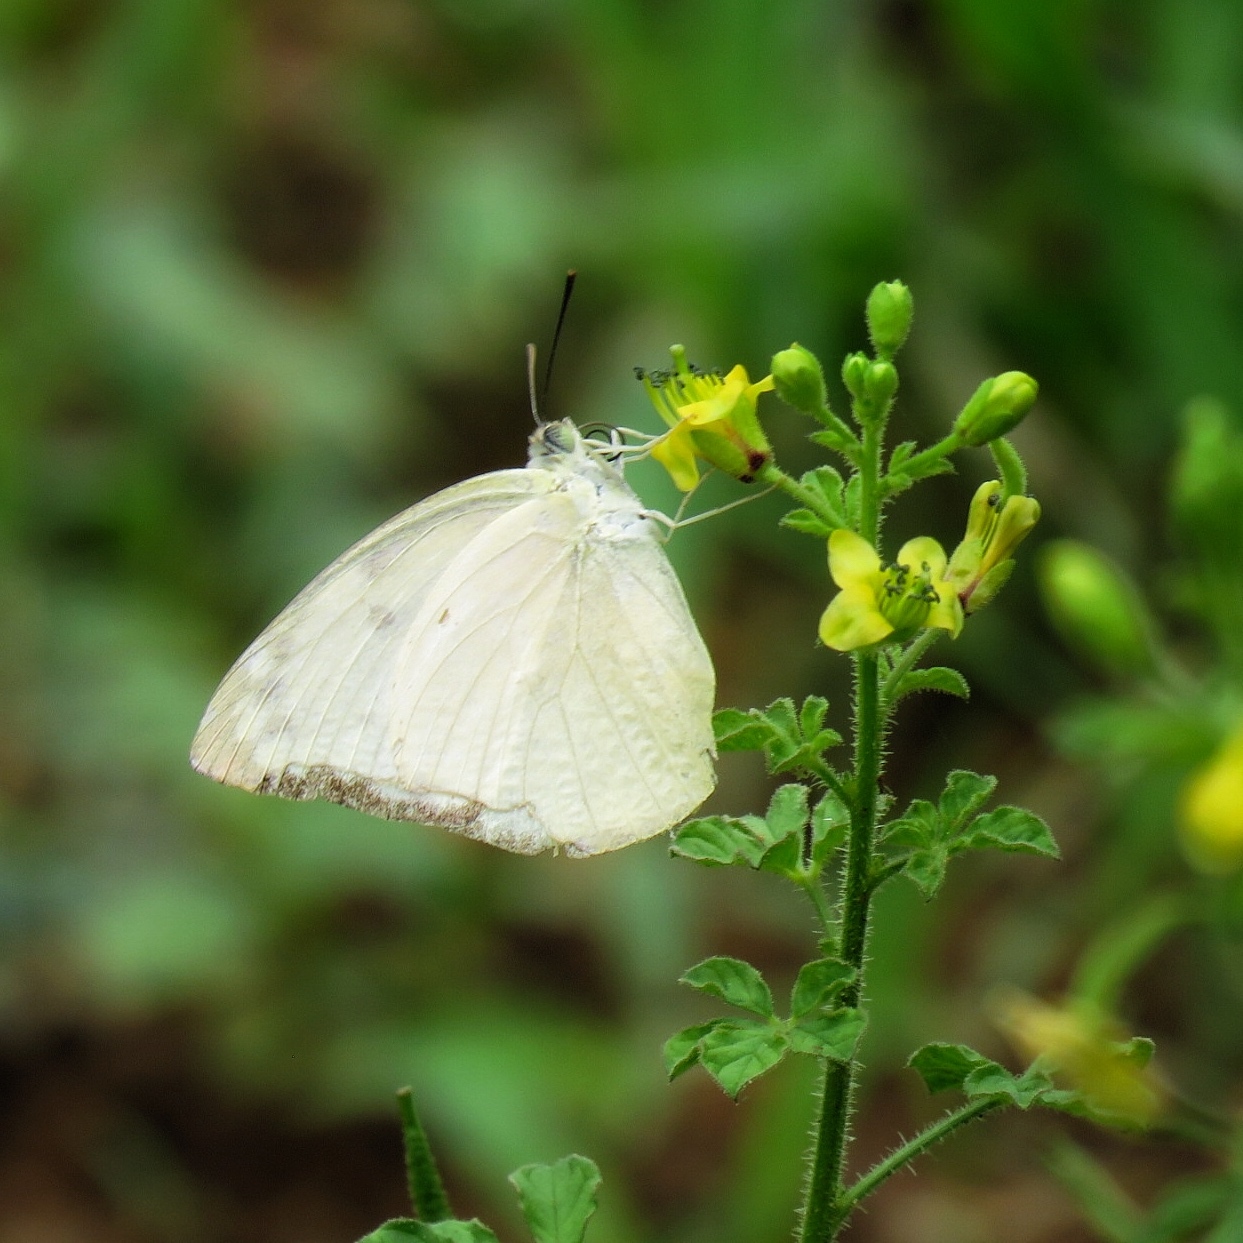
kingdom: Animalia
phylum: Arthropoda
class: Insecta
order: Lepidoptera
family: Pieridae
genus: Catopsilia
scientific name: Catopsilia pomona
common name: Common emigrant
